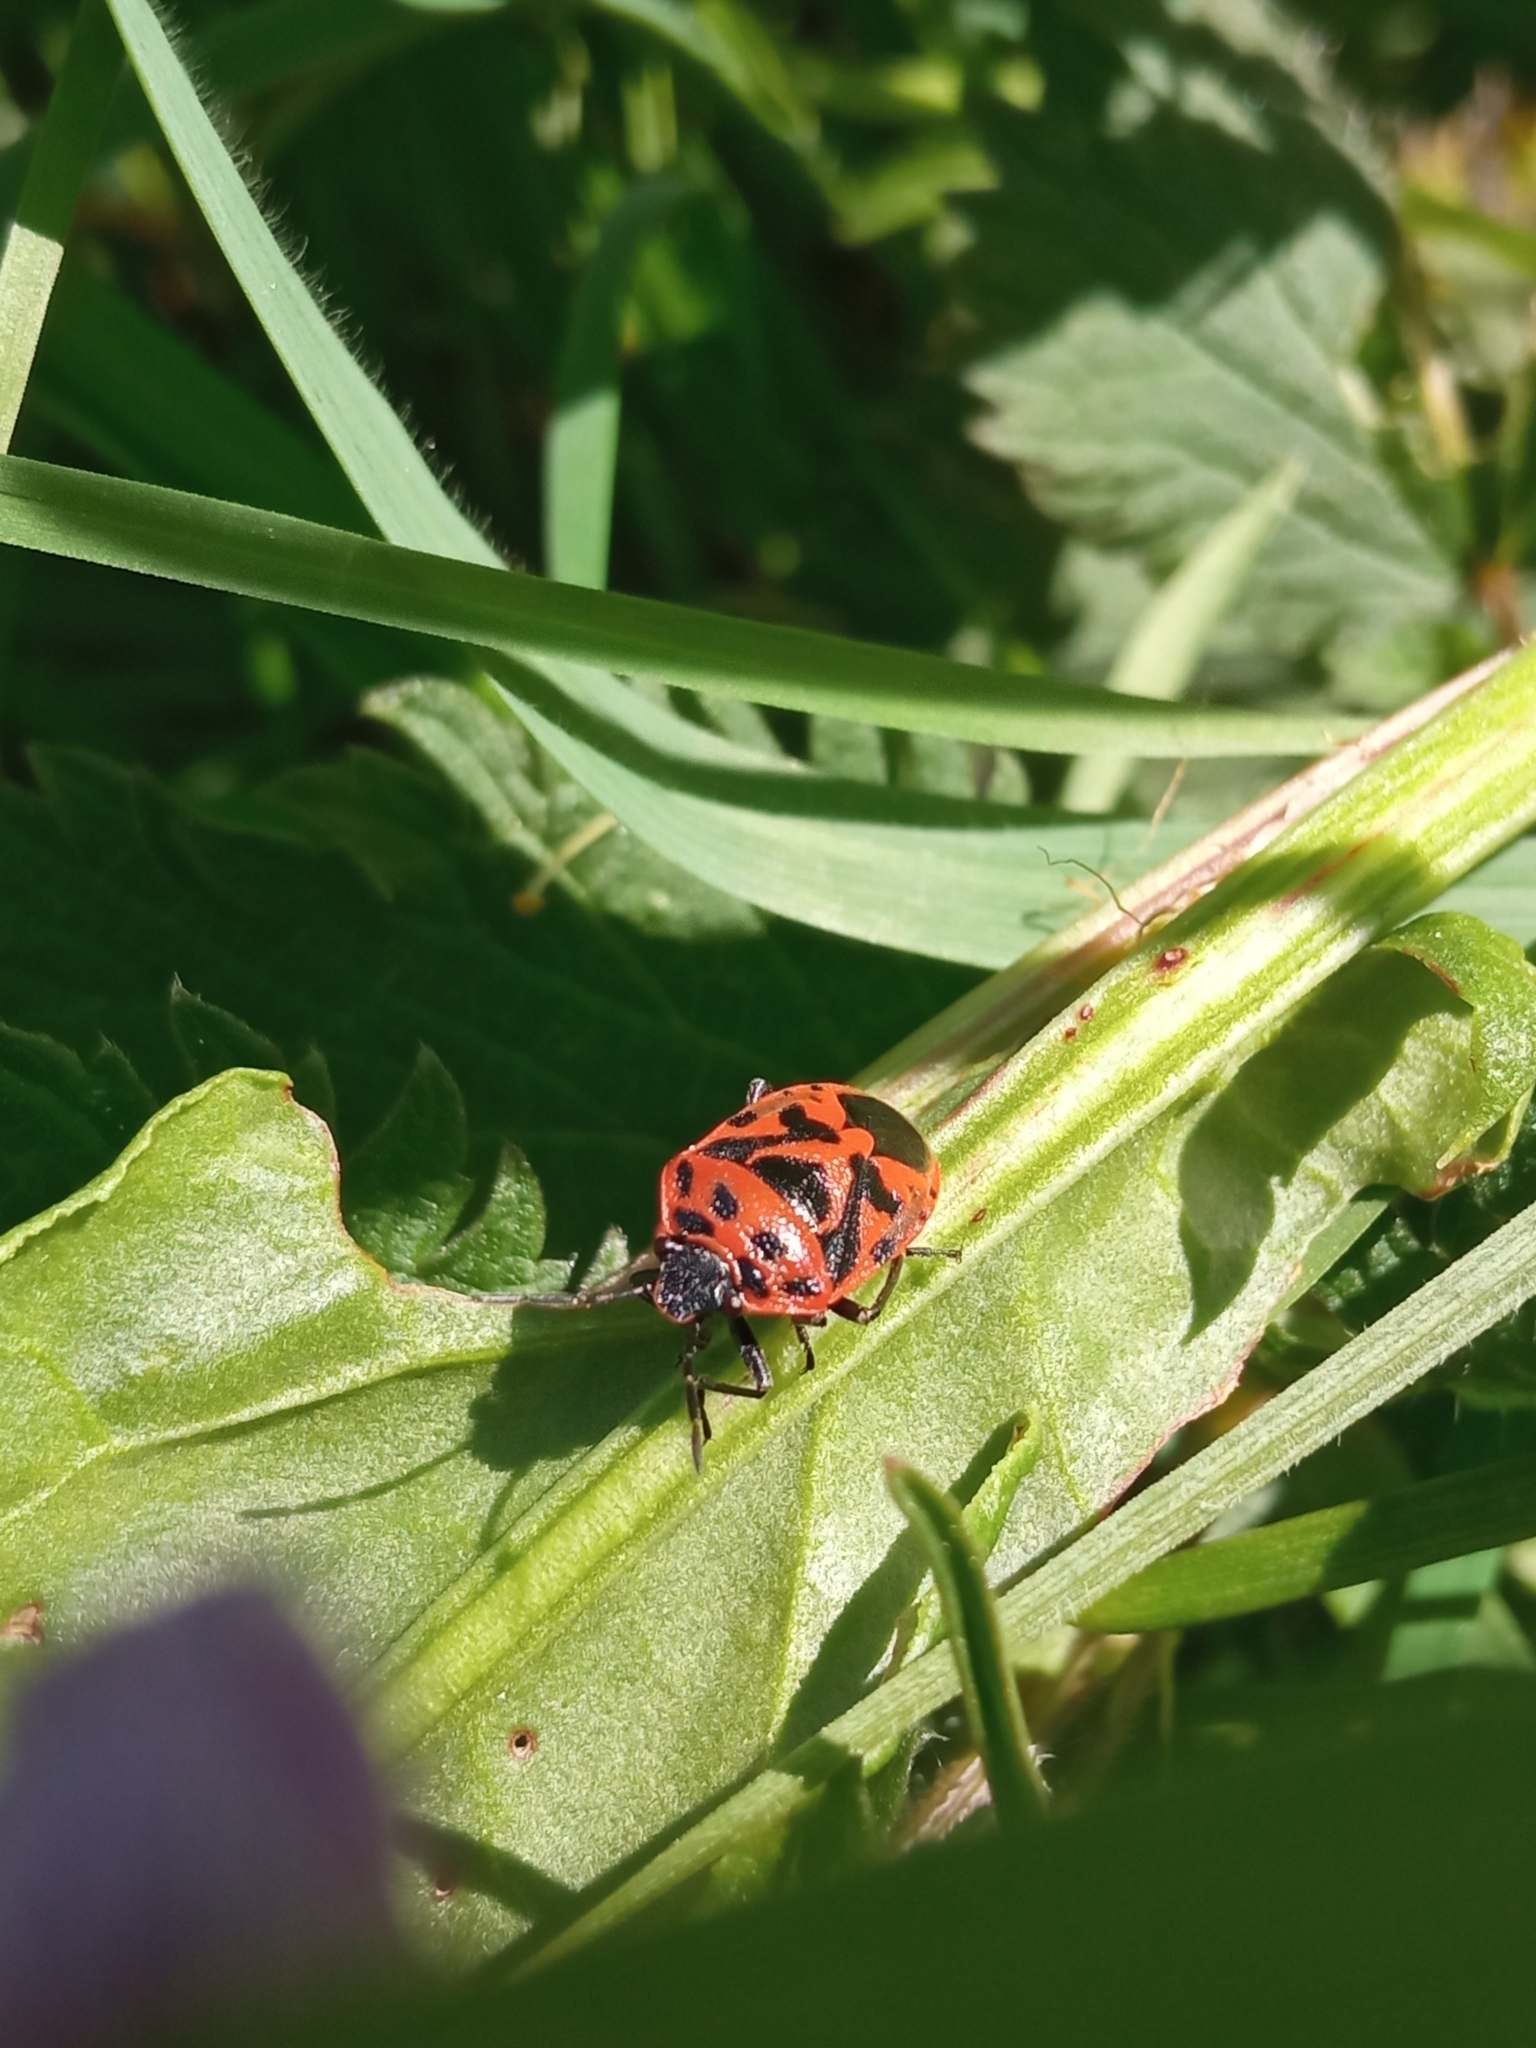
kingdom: Animalia
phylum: Arthropoda
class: Insecta
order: Hemiptera
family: Pentatomidae
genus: Eurydema
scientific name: Eurydema ornata
